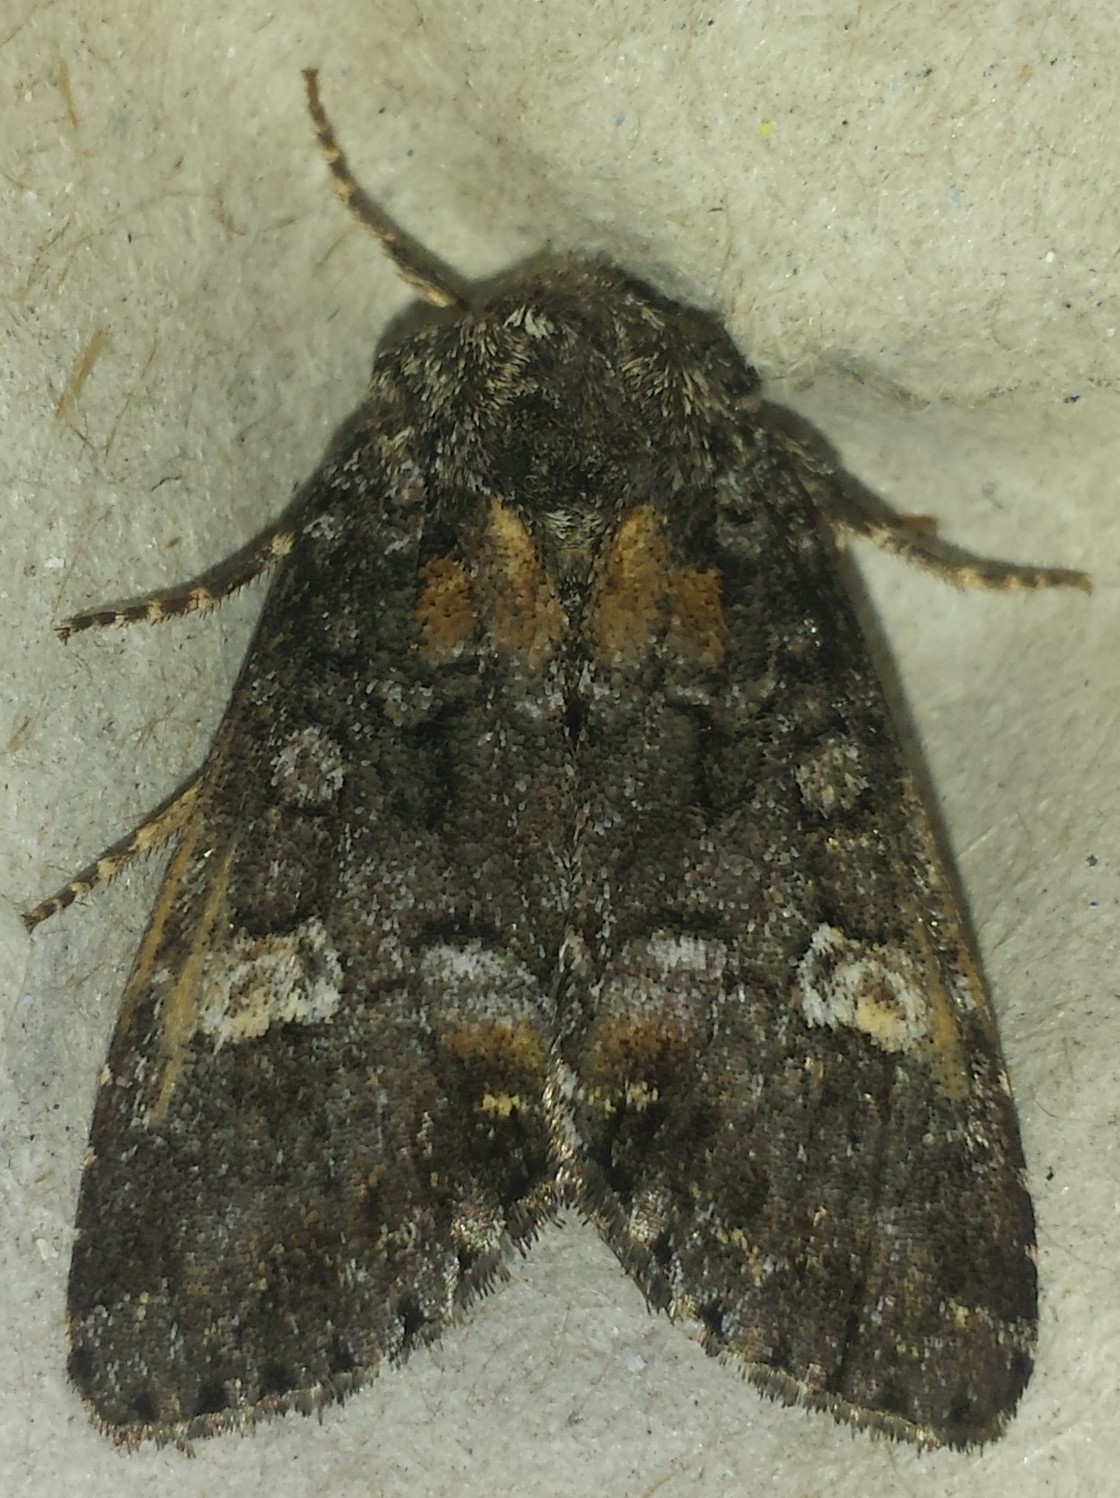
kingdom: Animalia
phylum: Arthropoda
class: Insecta
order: Lepidoptera
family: Noctuidae
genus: Spiramater
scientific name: Spiramater lutra
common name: Otter spiramater moth
